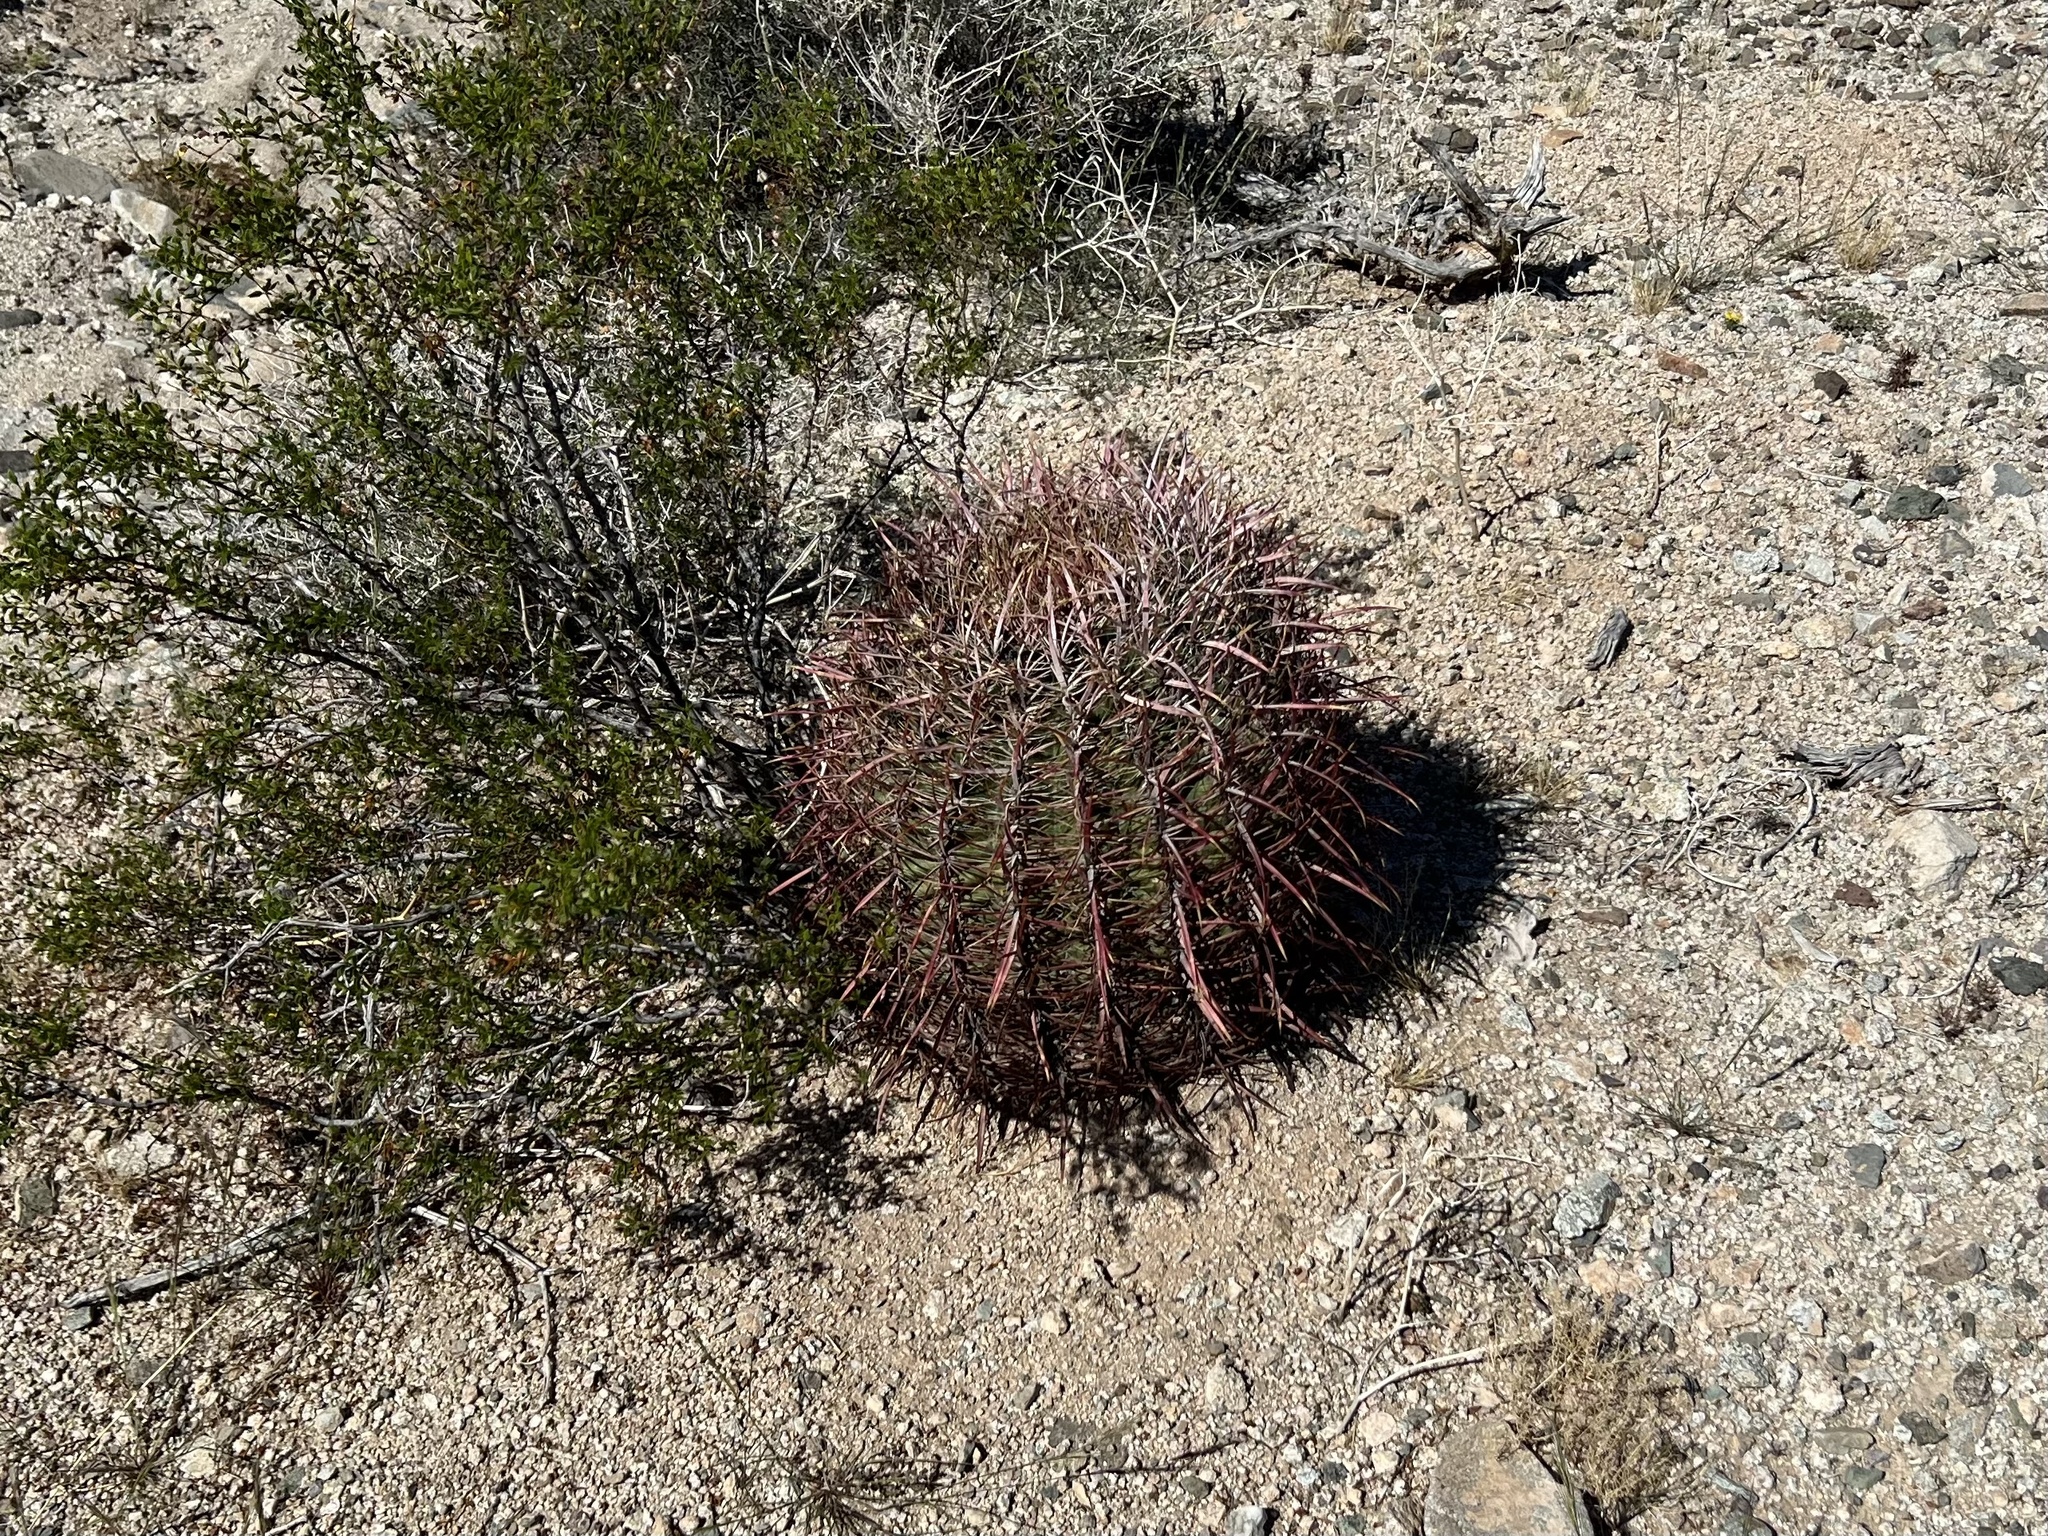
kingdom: Plantae
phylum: Tracheophyta
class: Magnoliopsida
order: Caryophyllales
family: Cactaceae
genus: Ferocactus
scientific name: Ferocactus cylindraceus
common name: California barrel cactus
